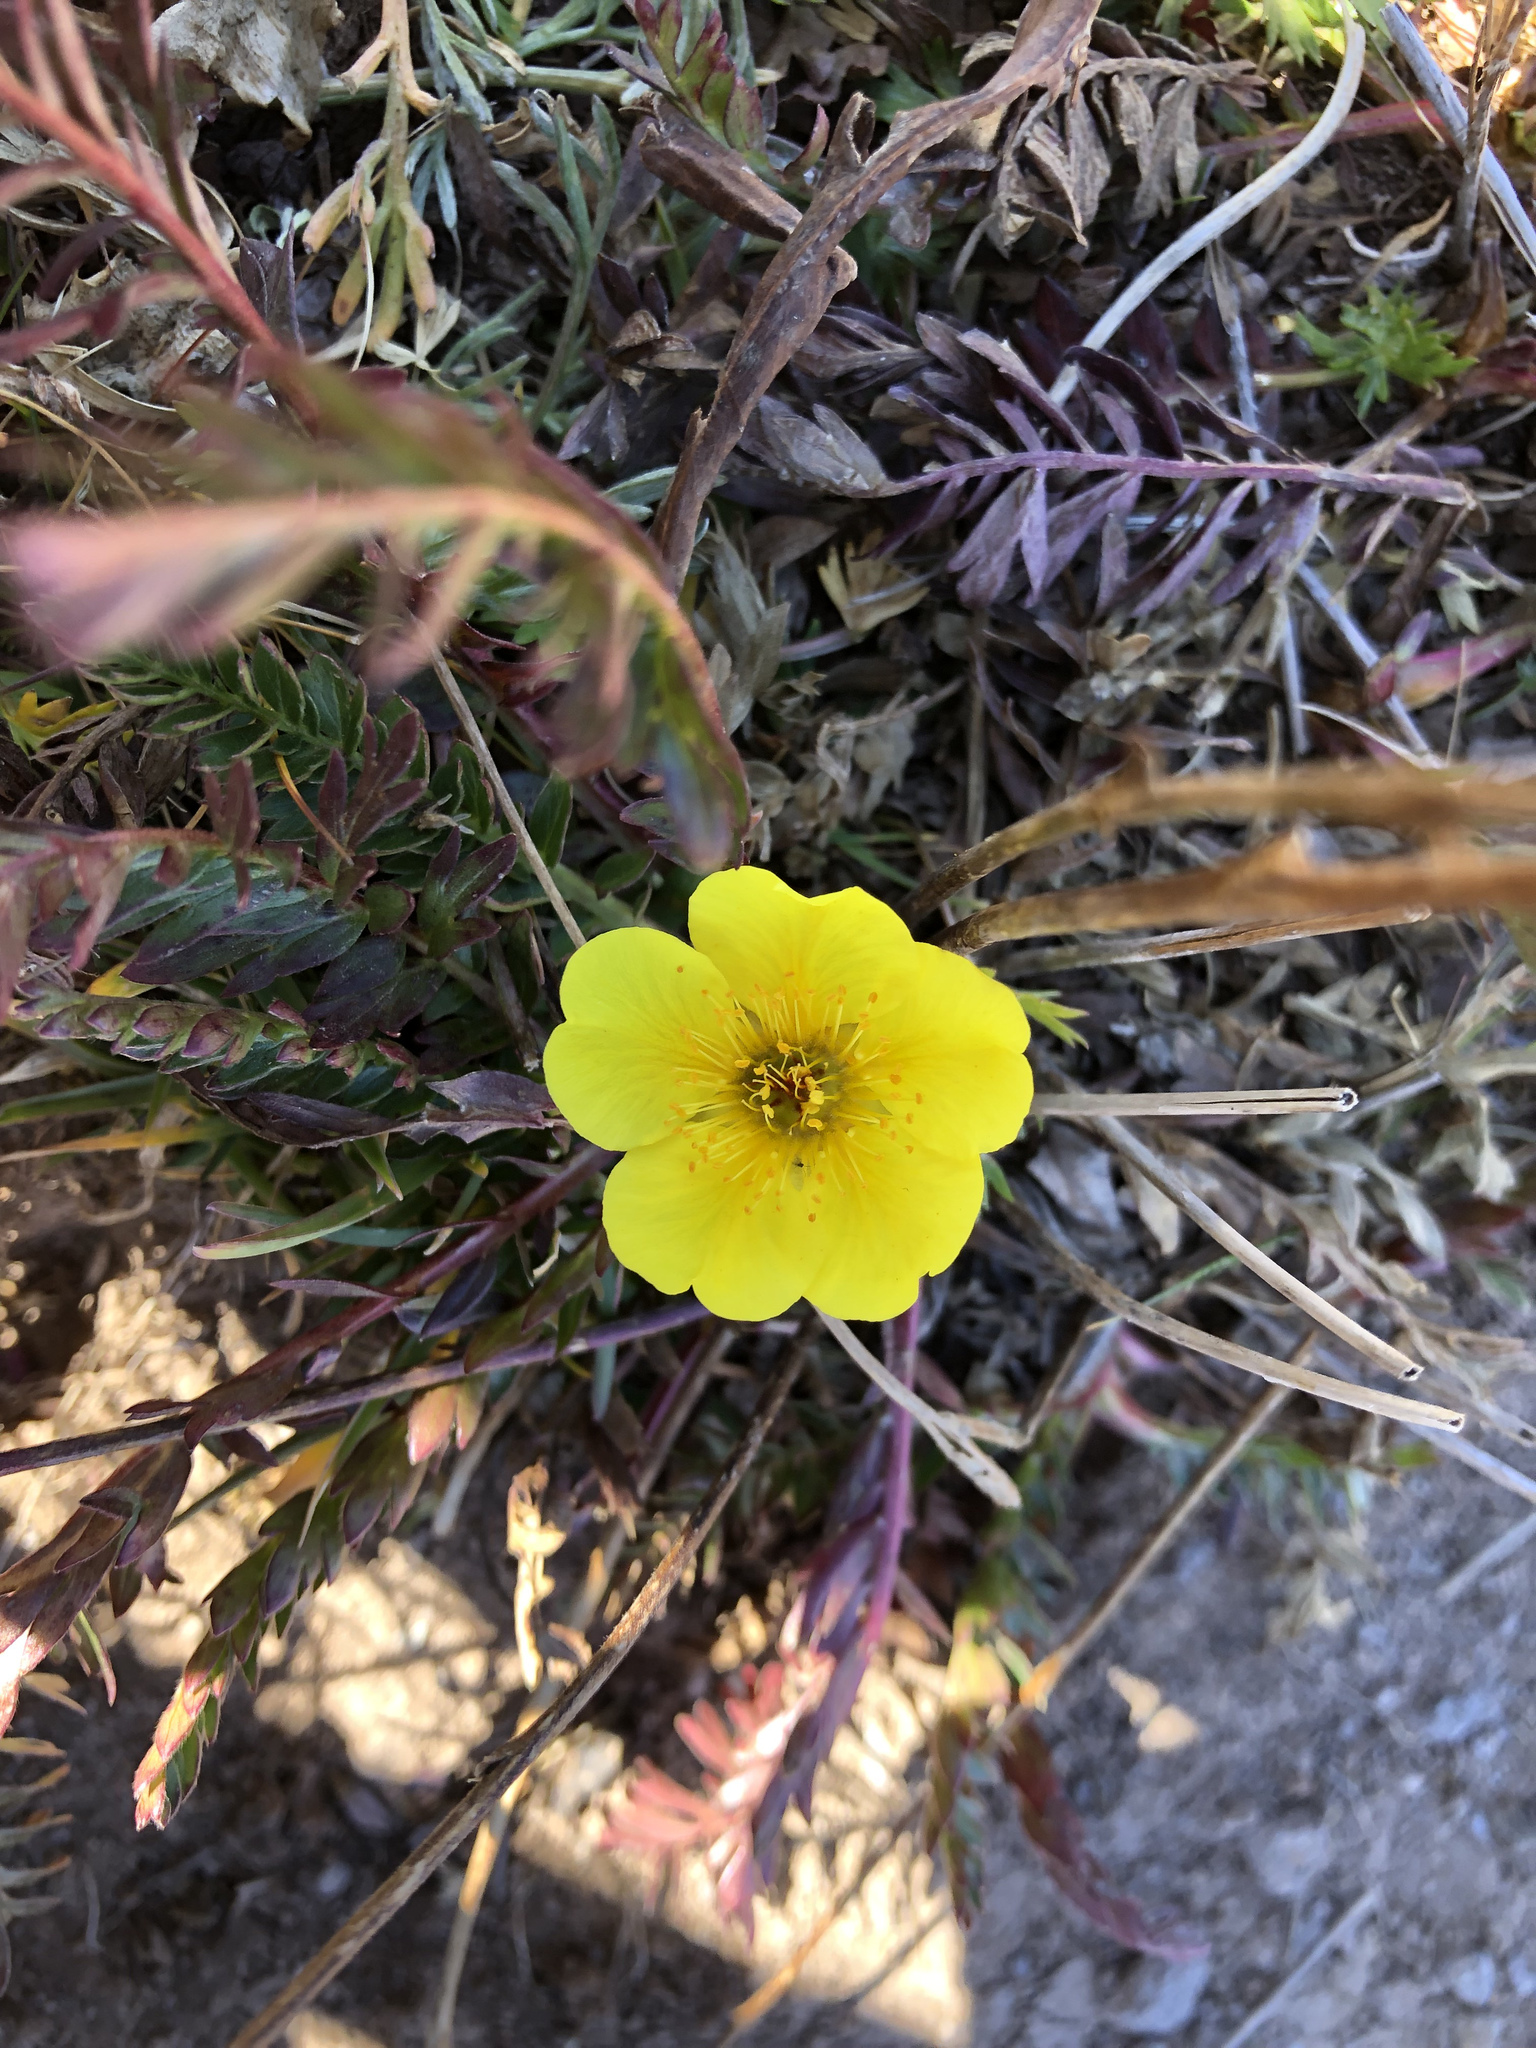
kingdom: Plantae
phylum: Tracheophyta
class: Magnoliopsida
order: Rosales
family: Rosaceae
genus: Geum
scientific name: Geum rossii
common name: Alpine avens
